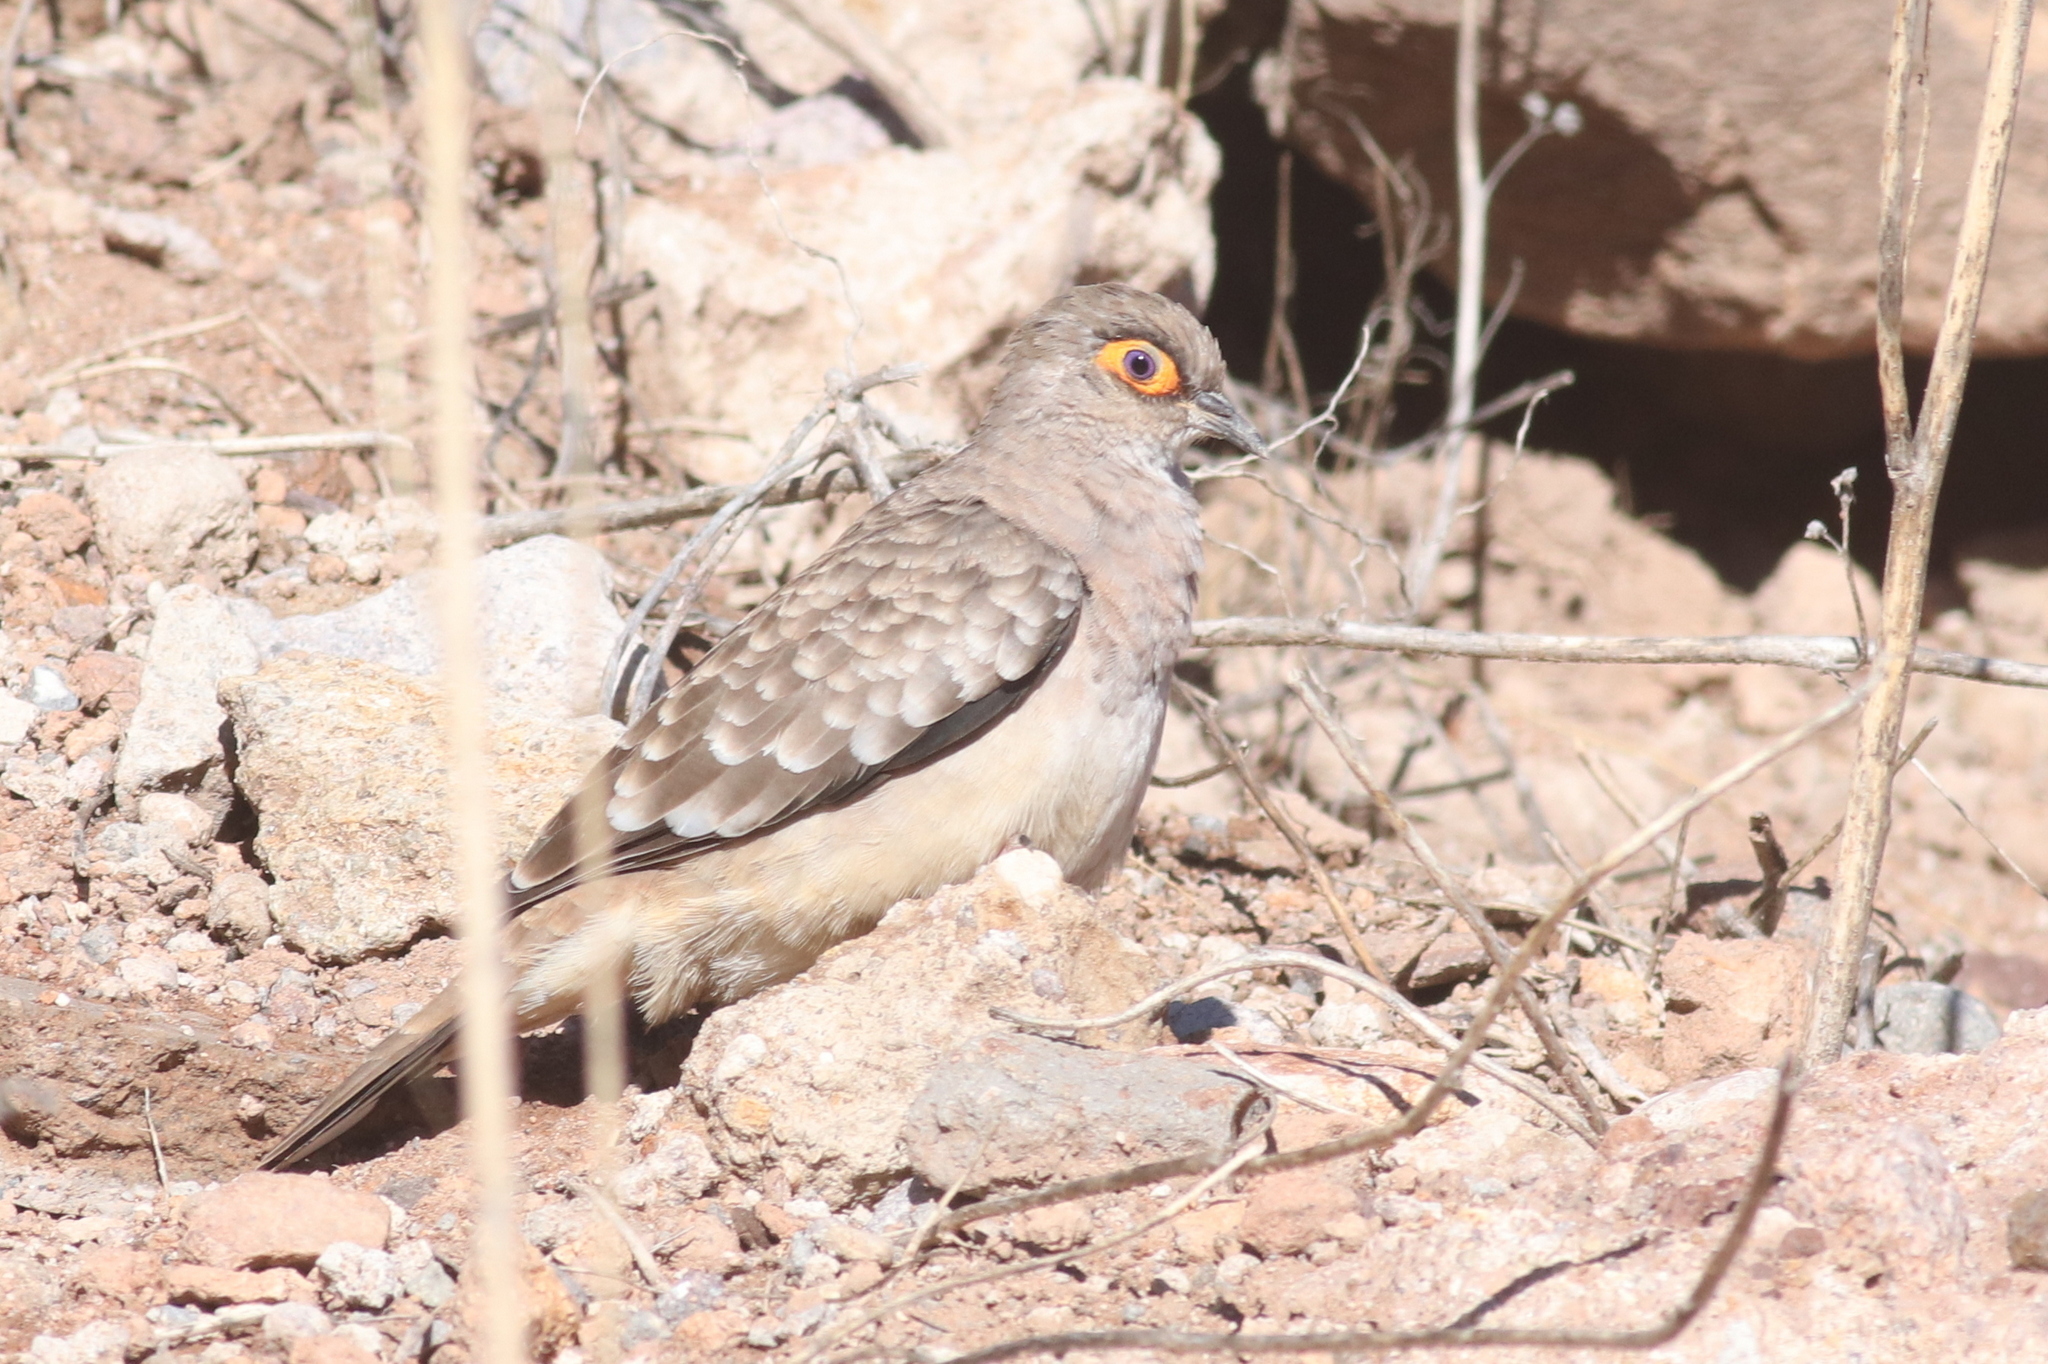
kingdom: Animalia
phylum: Chordata
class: Aves
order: Columbiformes
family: Columbidae
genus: Metriopelia
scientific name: Metriopelia ceciliae
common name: Bare-faced ground dove
